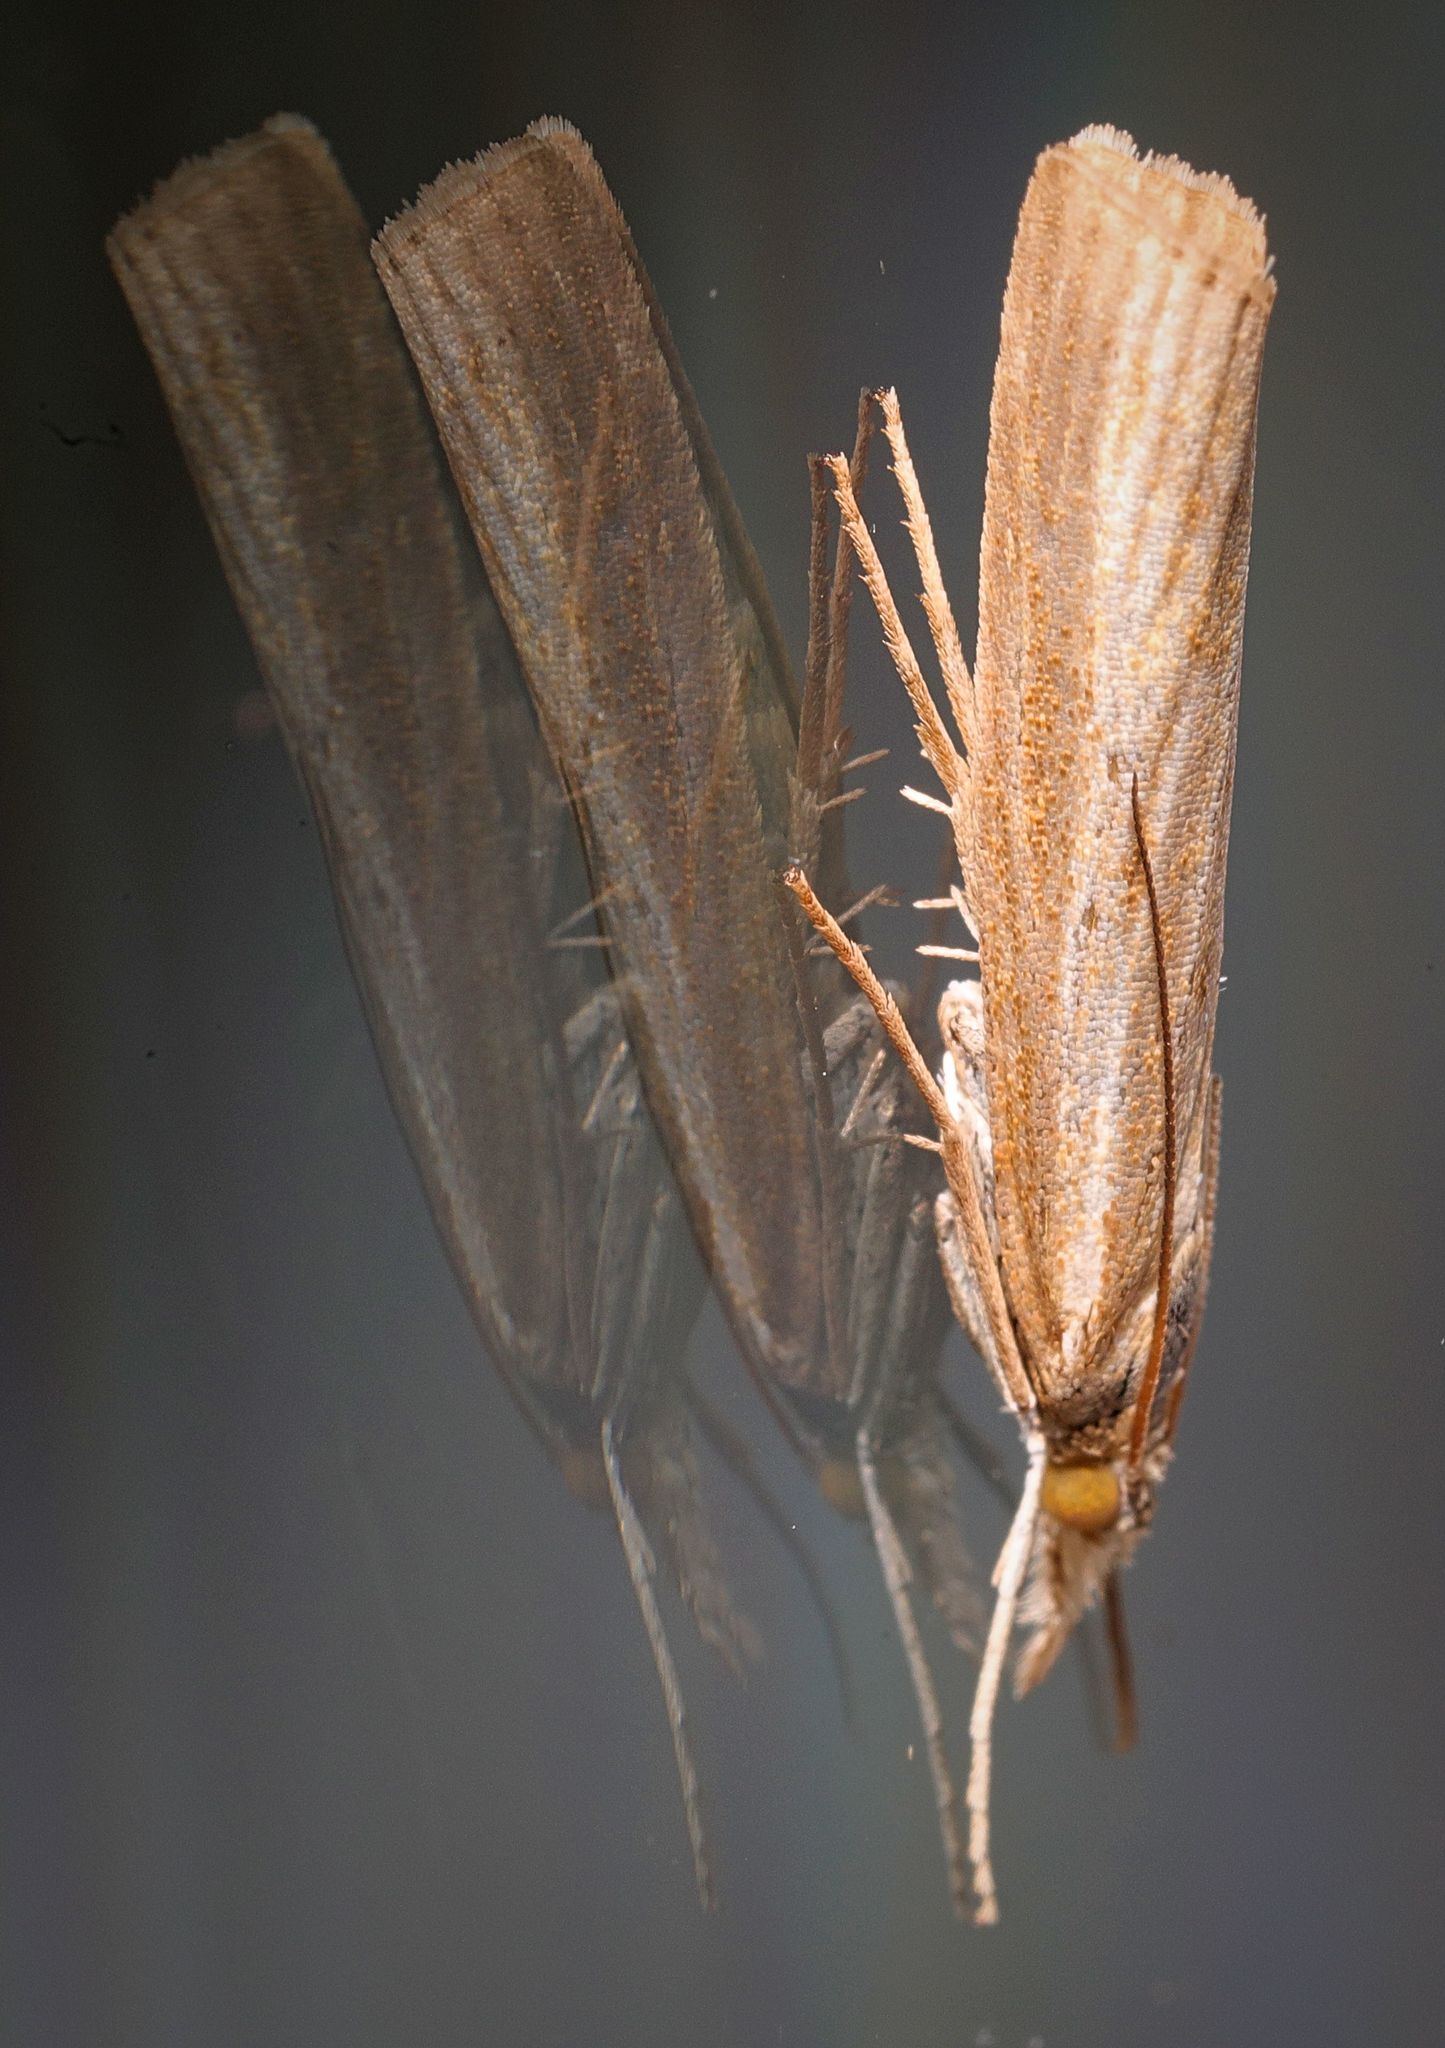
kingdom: Animalia
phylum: Arthropoda
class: Insecta
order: Lepidoptera
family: Crambidae
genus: Agriphila
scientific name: Agriphila tristellus
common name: Common grass-veneer
